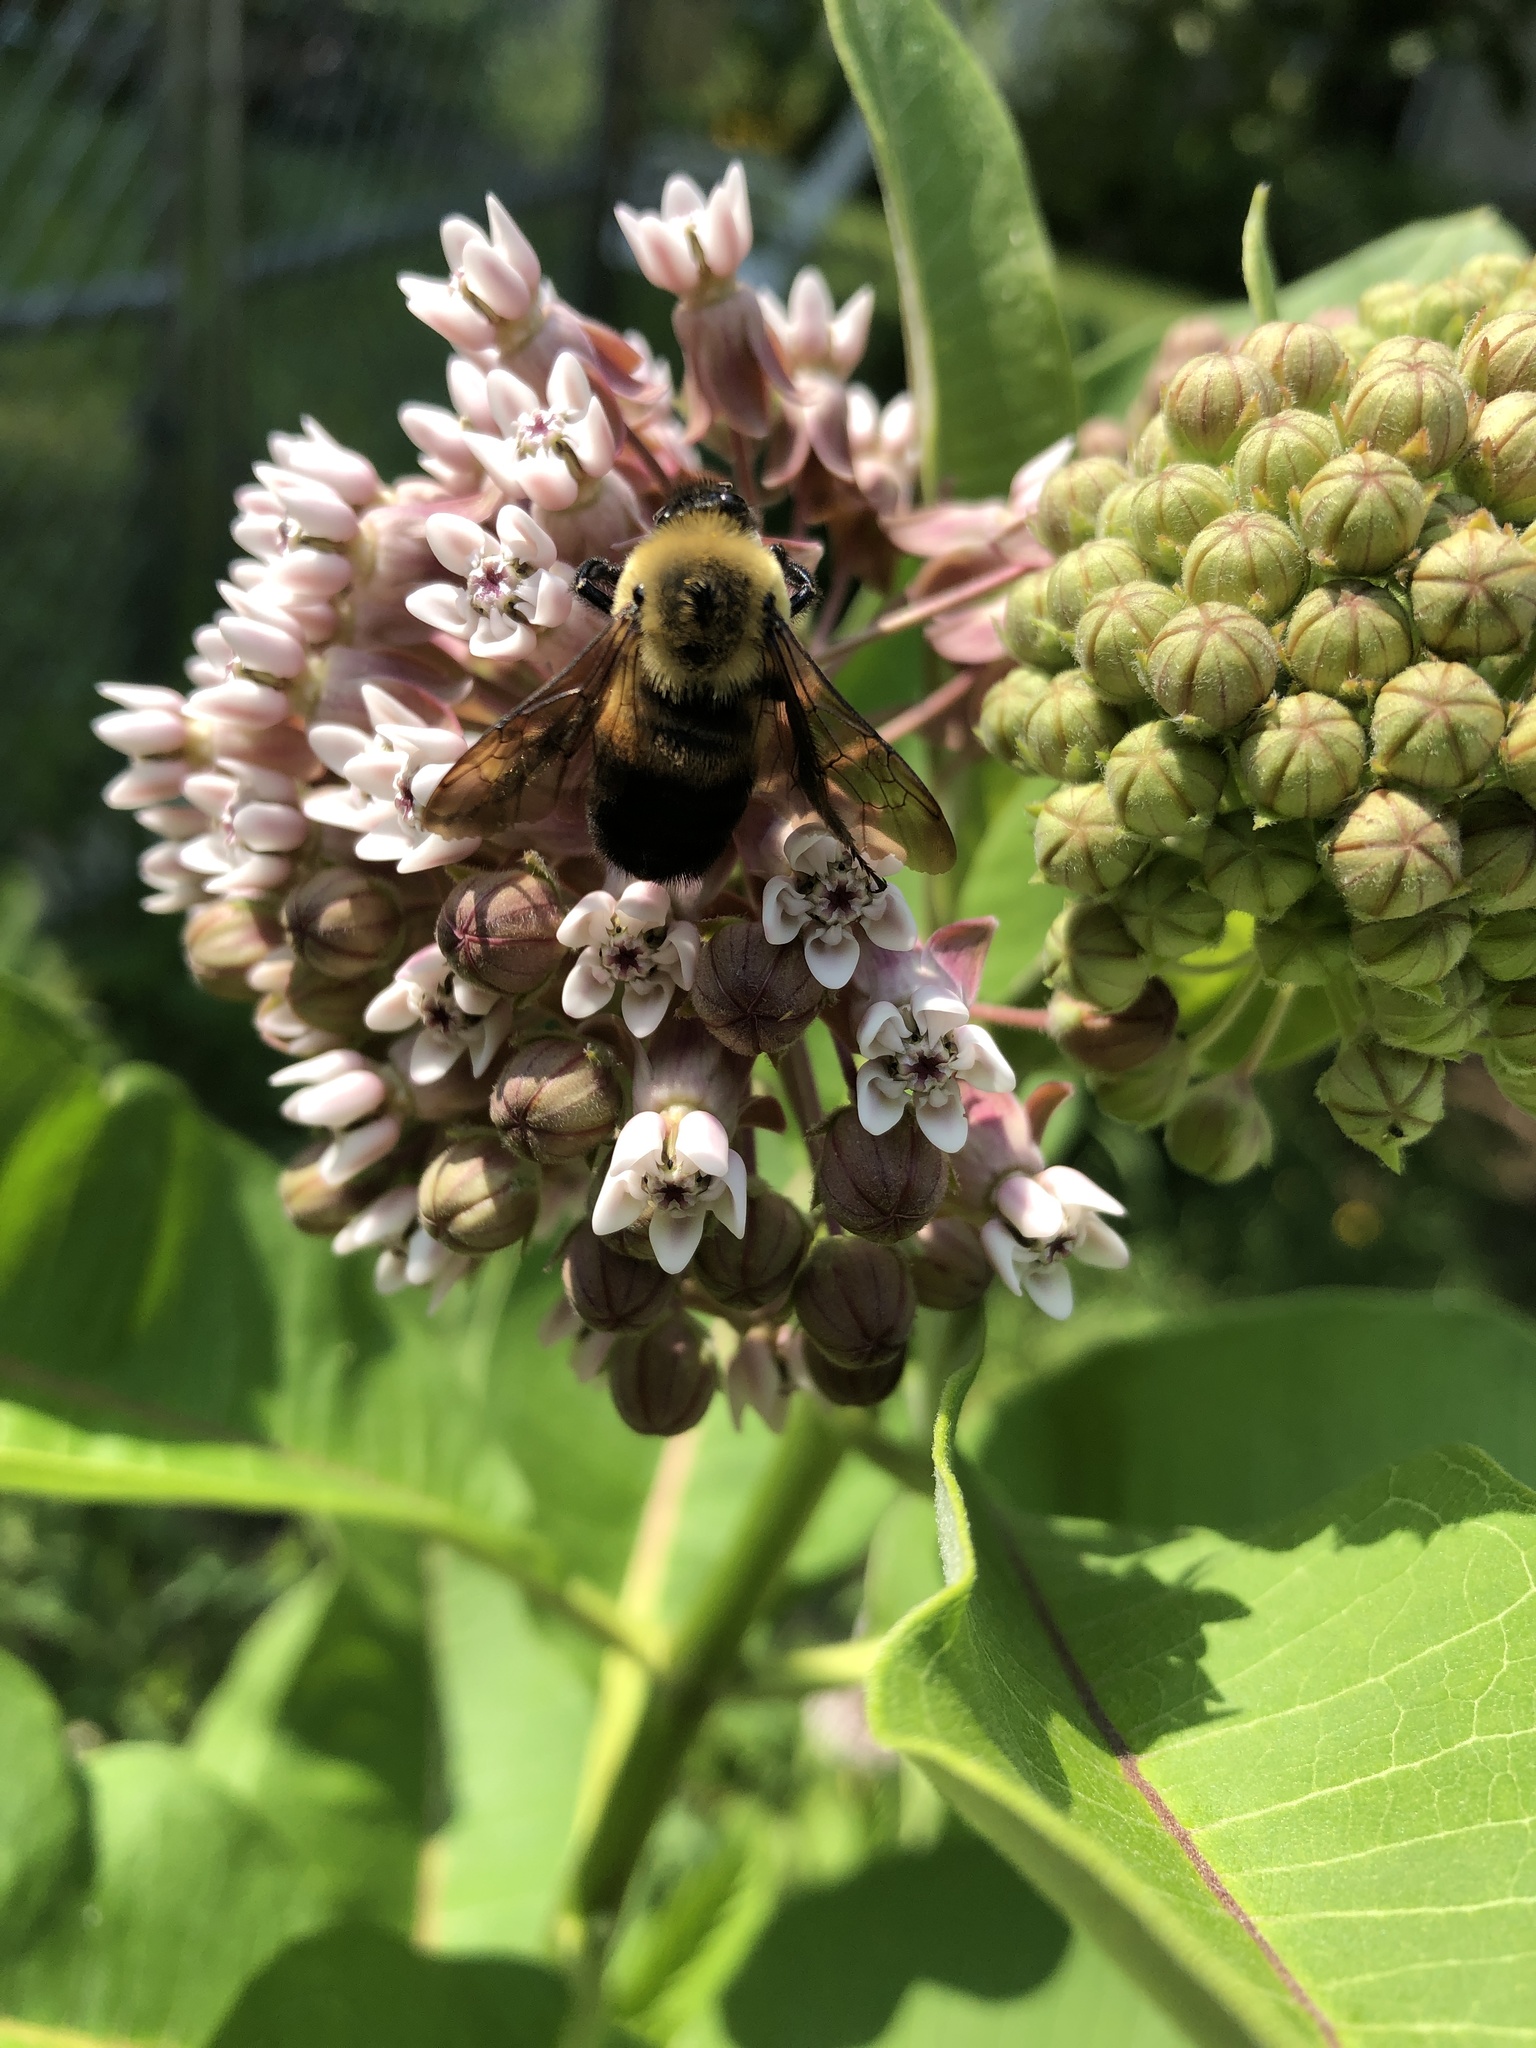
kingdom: Animalia
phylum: Arthropoda
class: Insecta
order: Hymenoptera
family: Apidae
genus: Bombus
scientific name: Bombus griseocollis
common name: Brown-belted bumble bee
